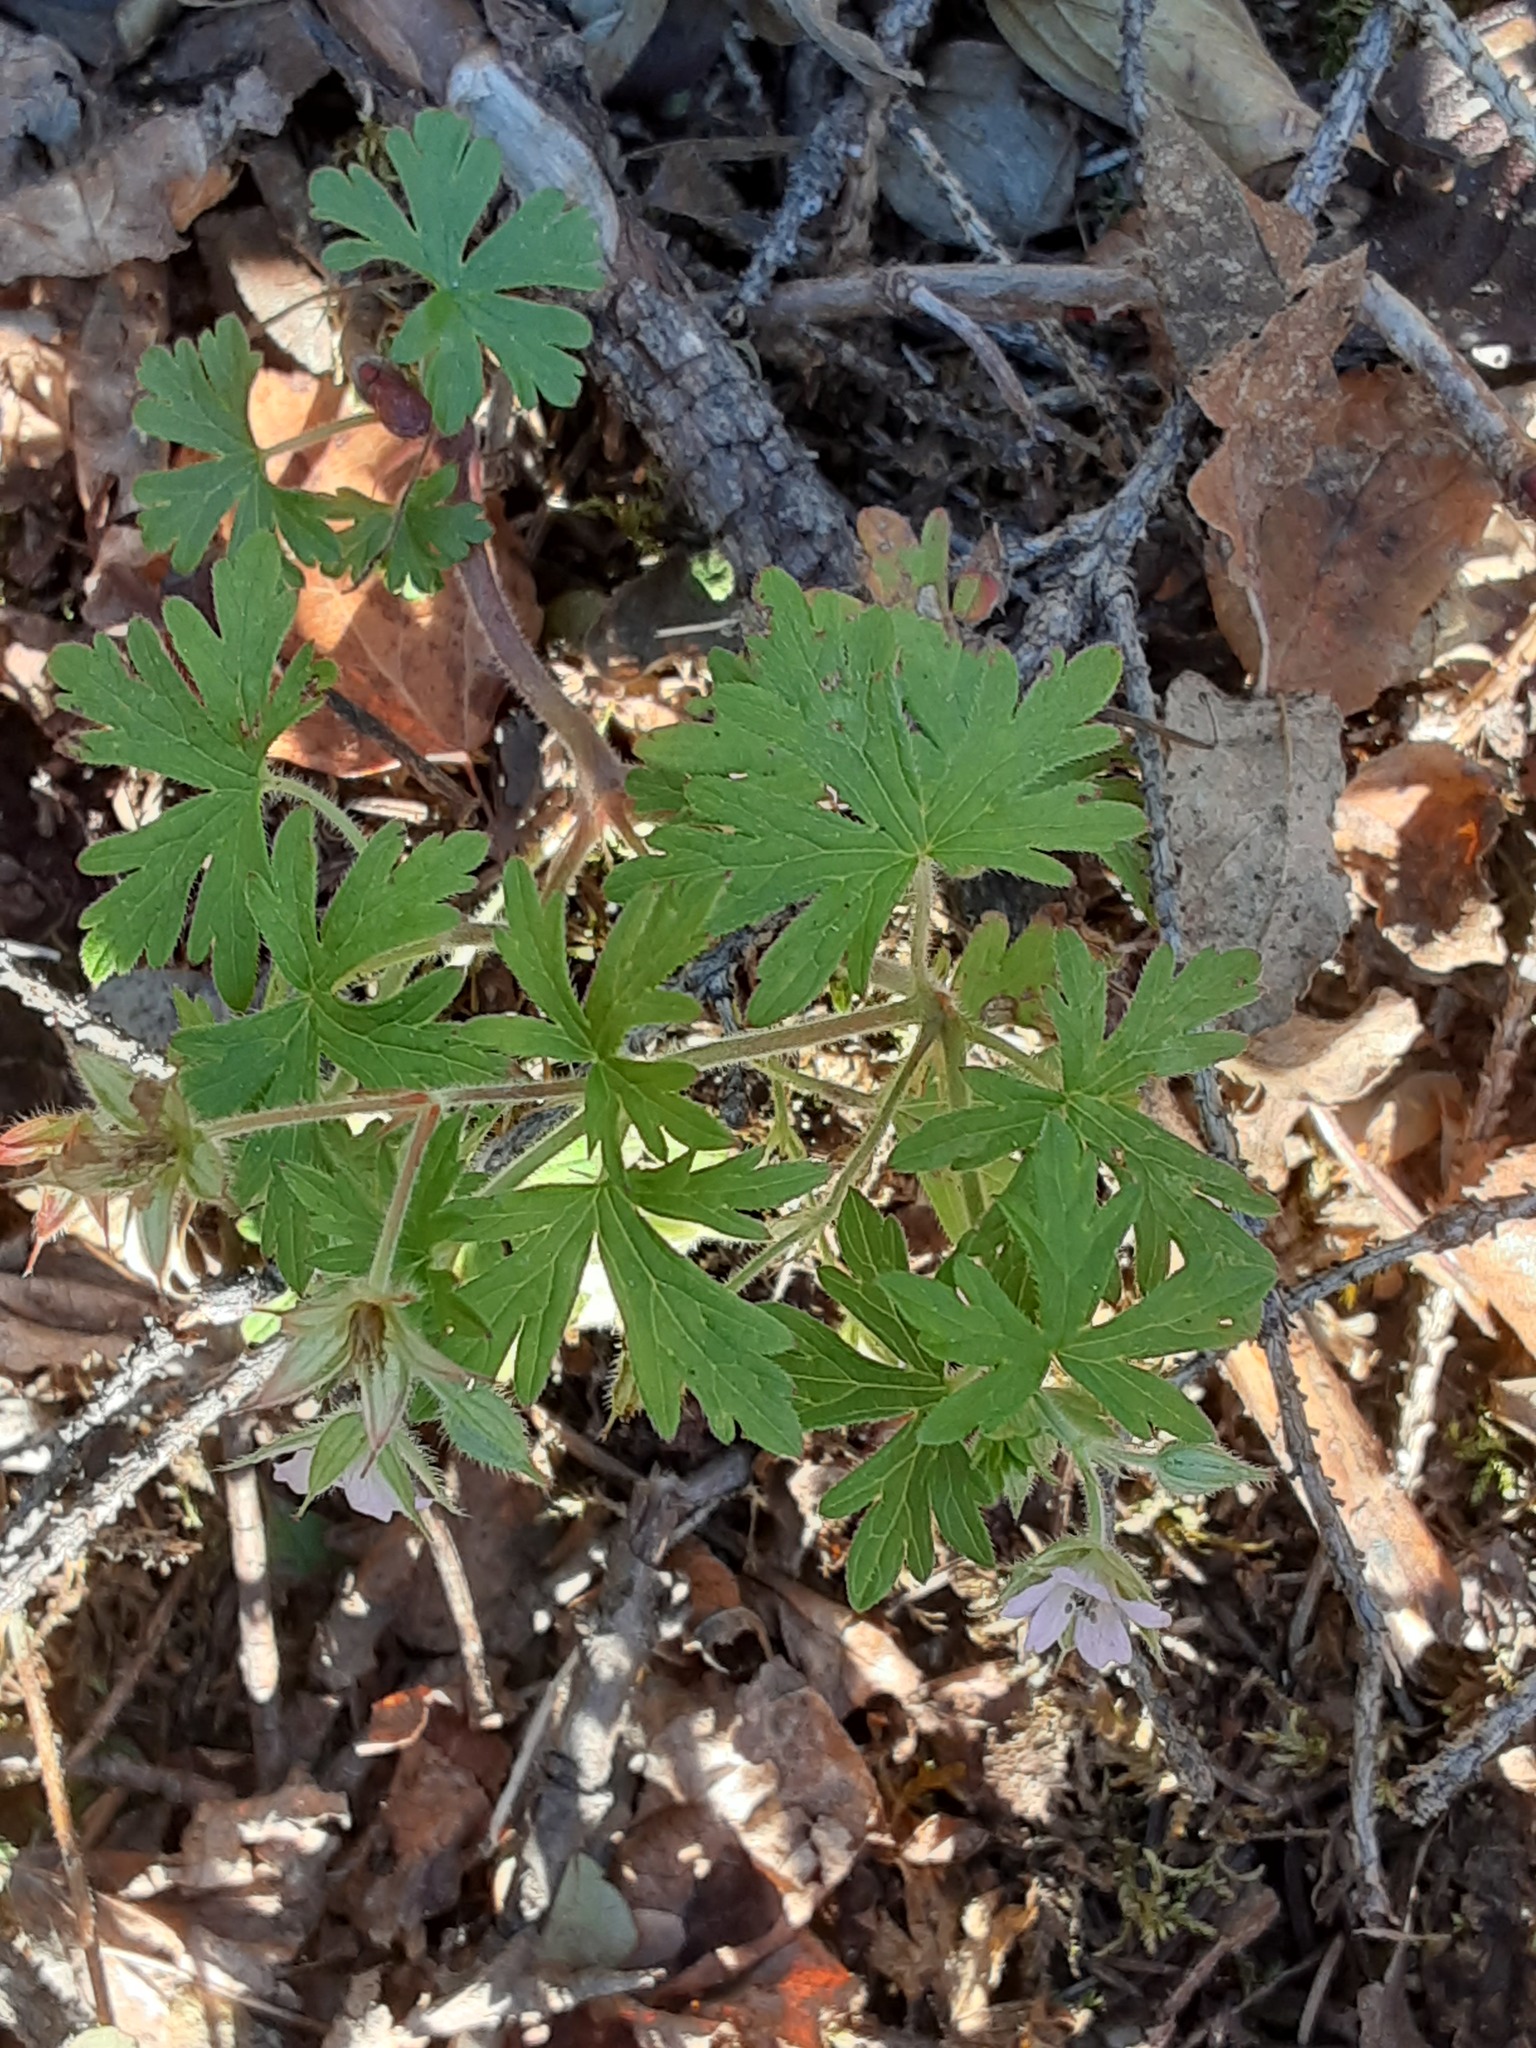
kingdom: Plantae
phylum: Tracheophyta
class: Magnoliopsida
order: Geraniales
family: Geraniaceae
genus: Geranium
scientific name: Geranium bicknellii
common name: Bicknell's cranesbill
